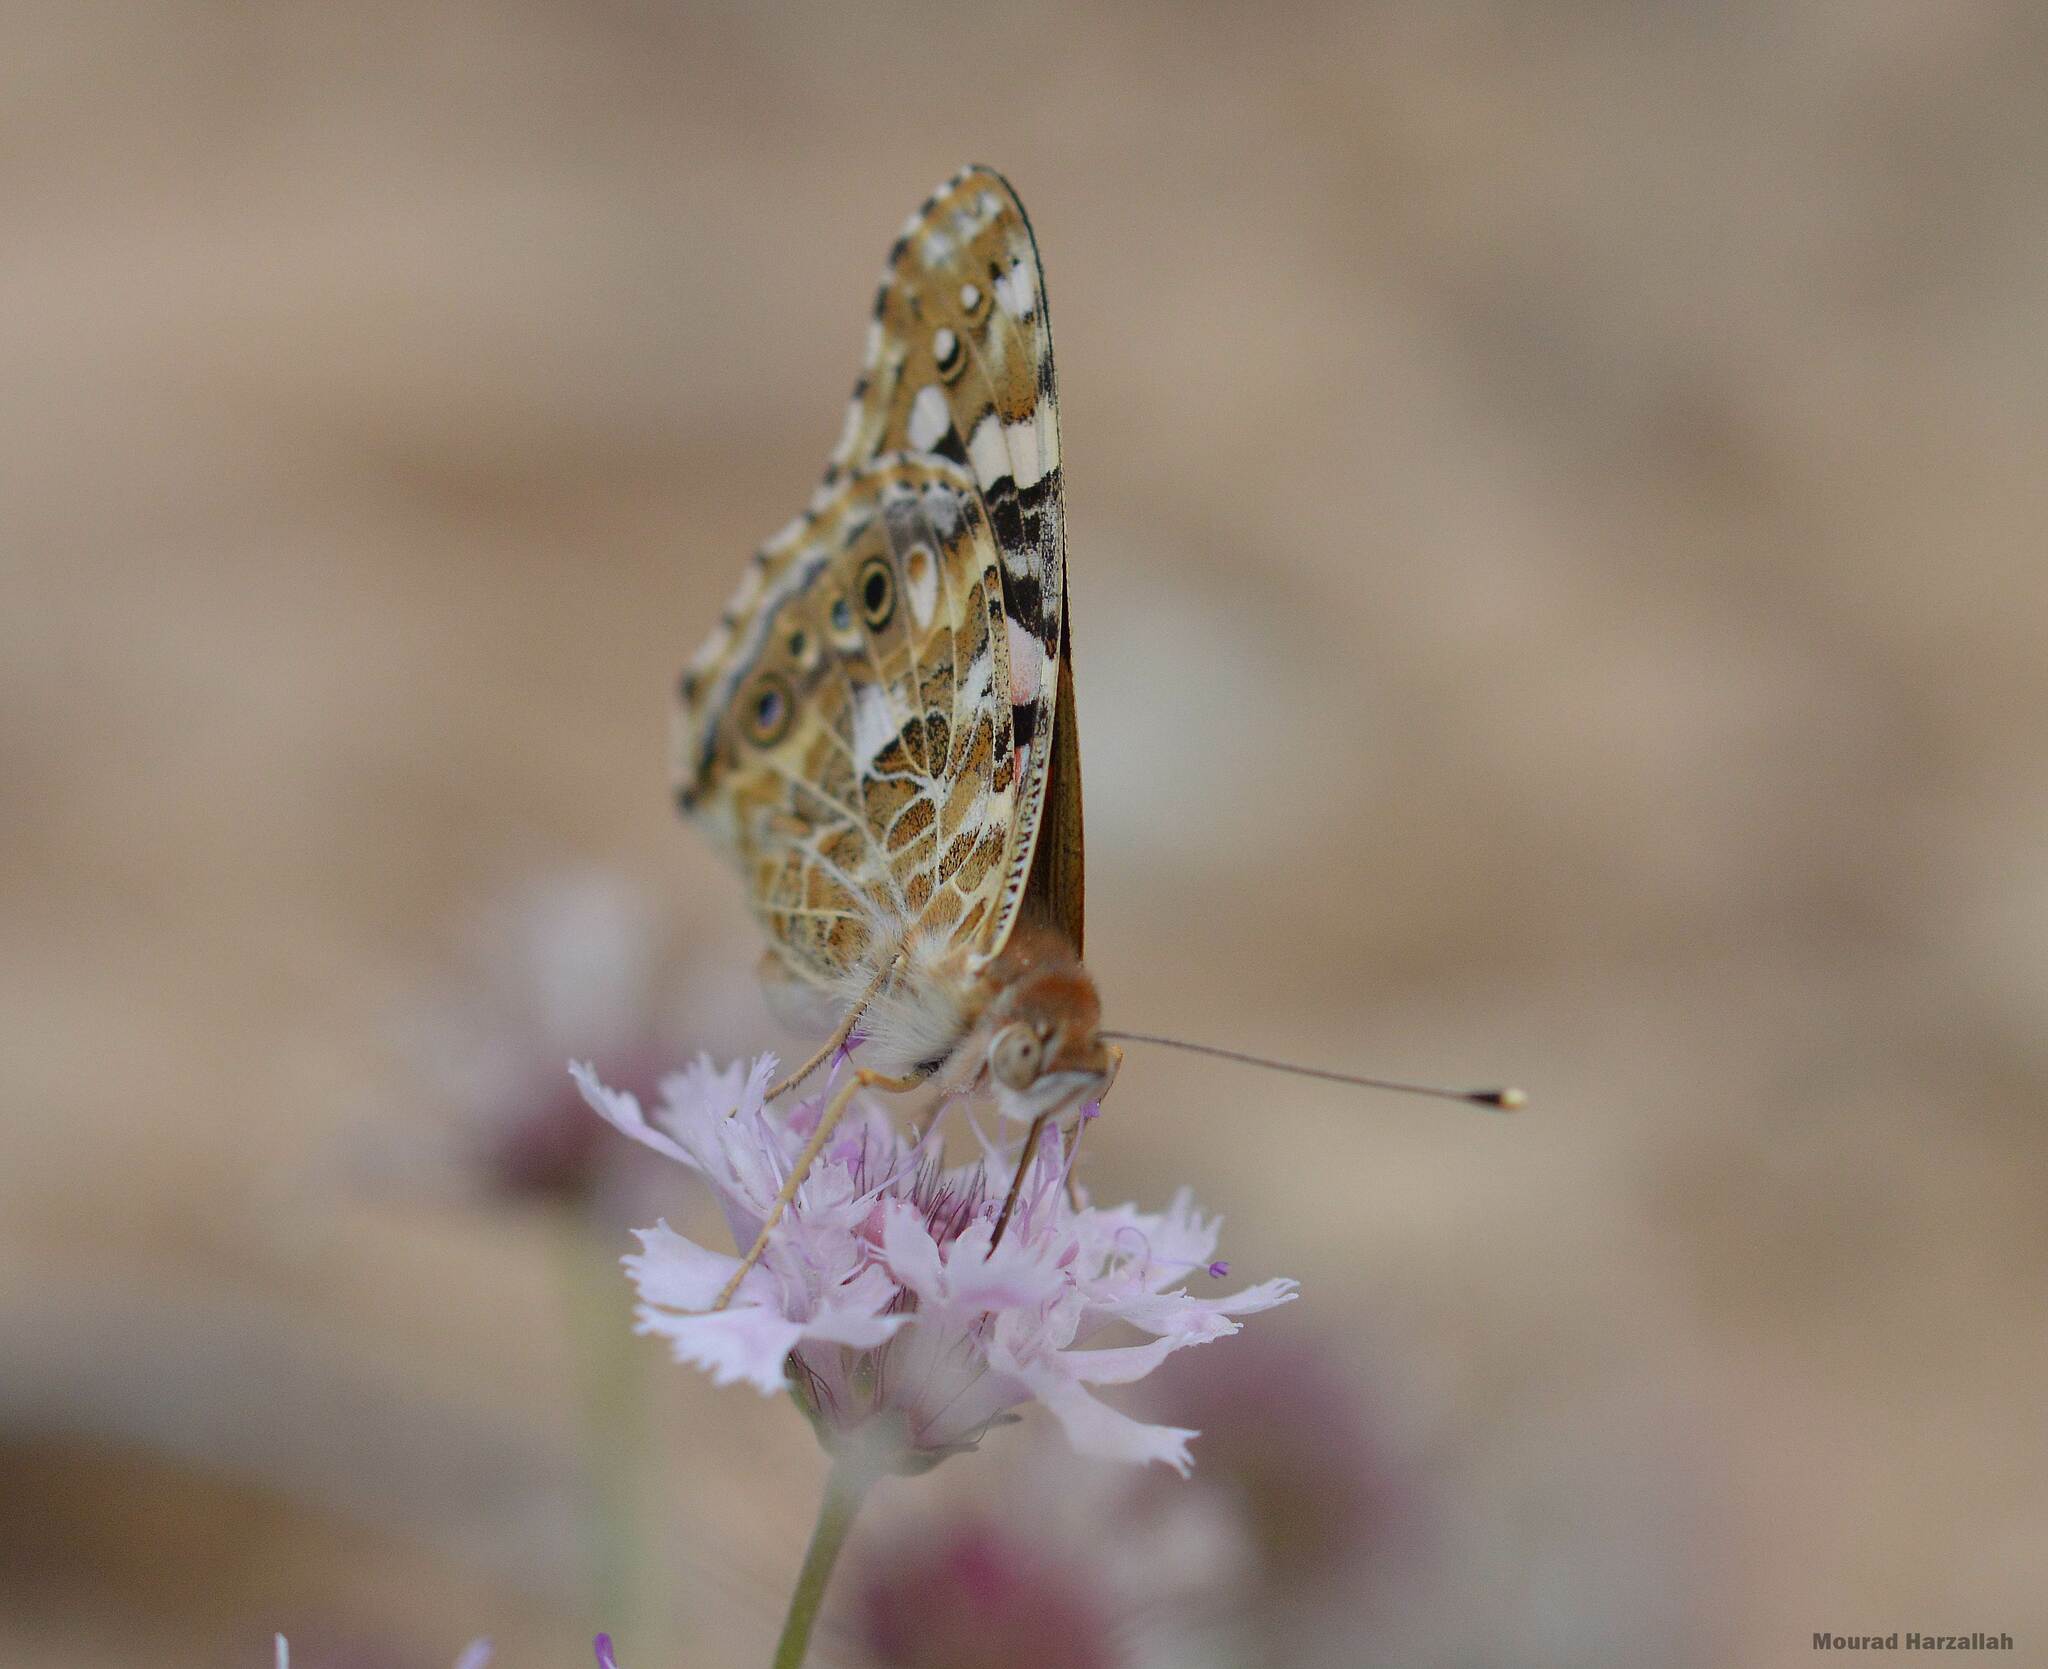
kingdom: Animalia
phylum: Arthropoda
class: Insecta
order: Lepidoptera
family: Nymphalidae
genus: Vanessa
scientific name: Vanessa cardui
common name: Painted lady
